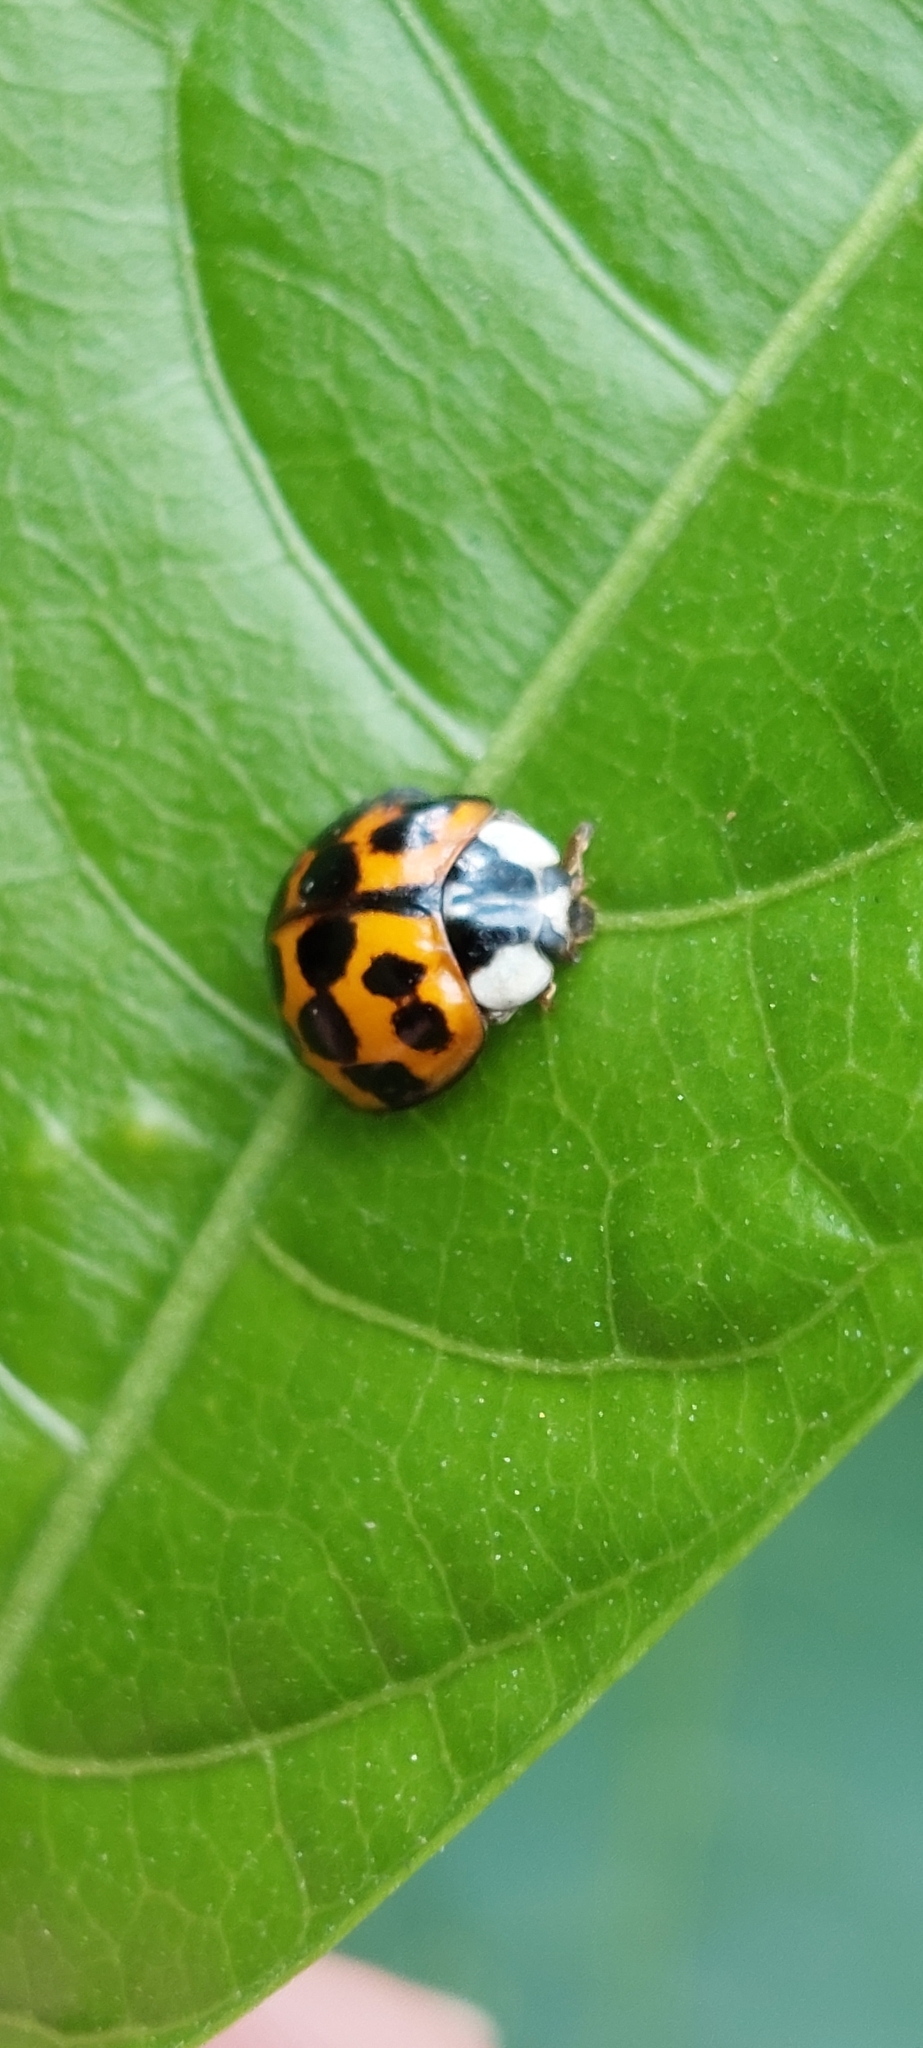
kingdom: Animalia
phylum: Arthropoda
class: Insecta
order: Coleoptera
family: Coccinellidae
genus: Harmonia
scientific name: Harmonia axyridis
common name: Harlequin ladybird
